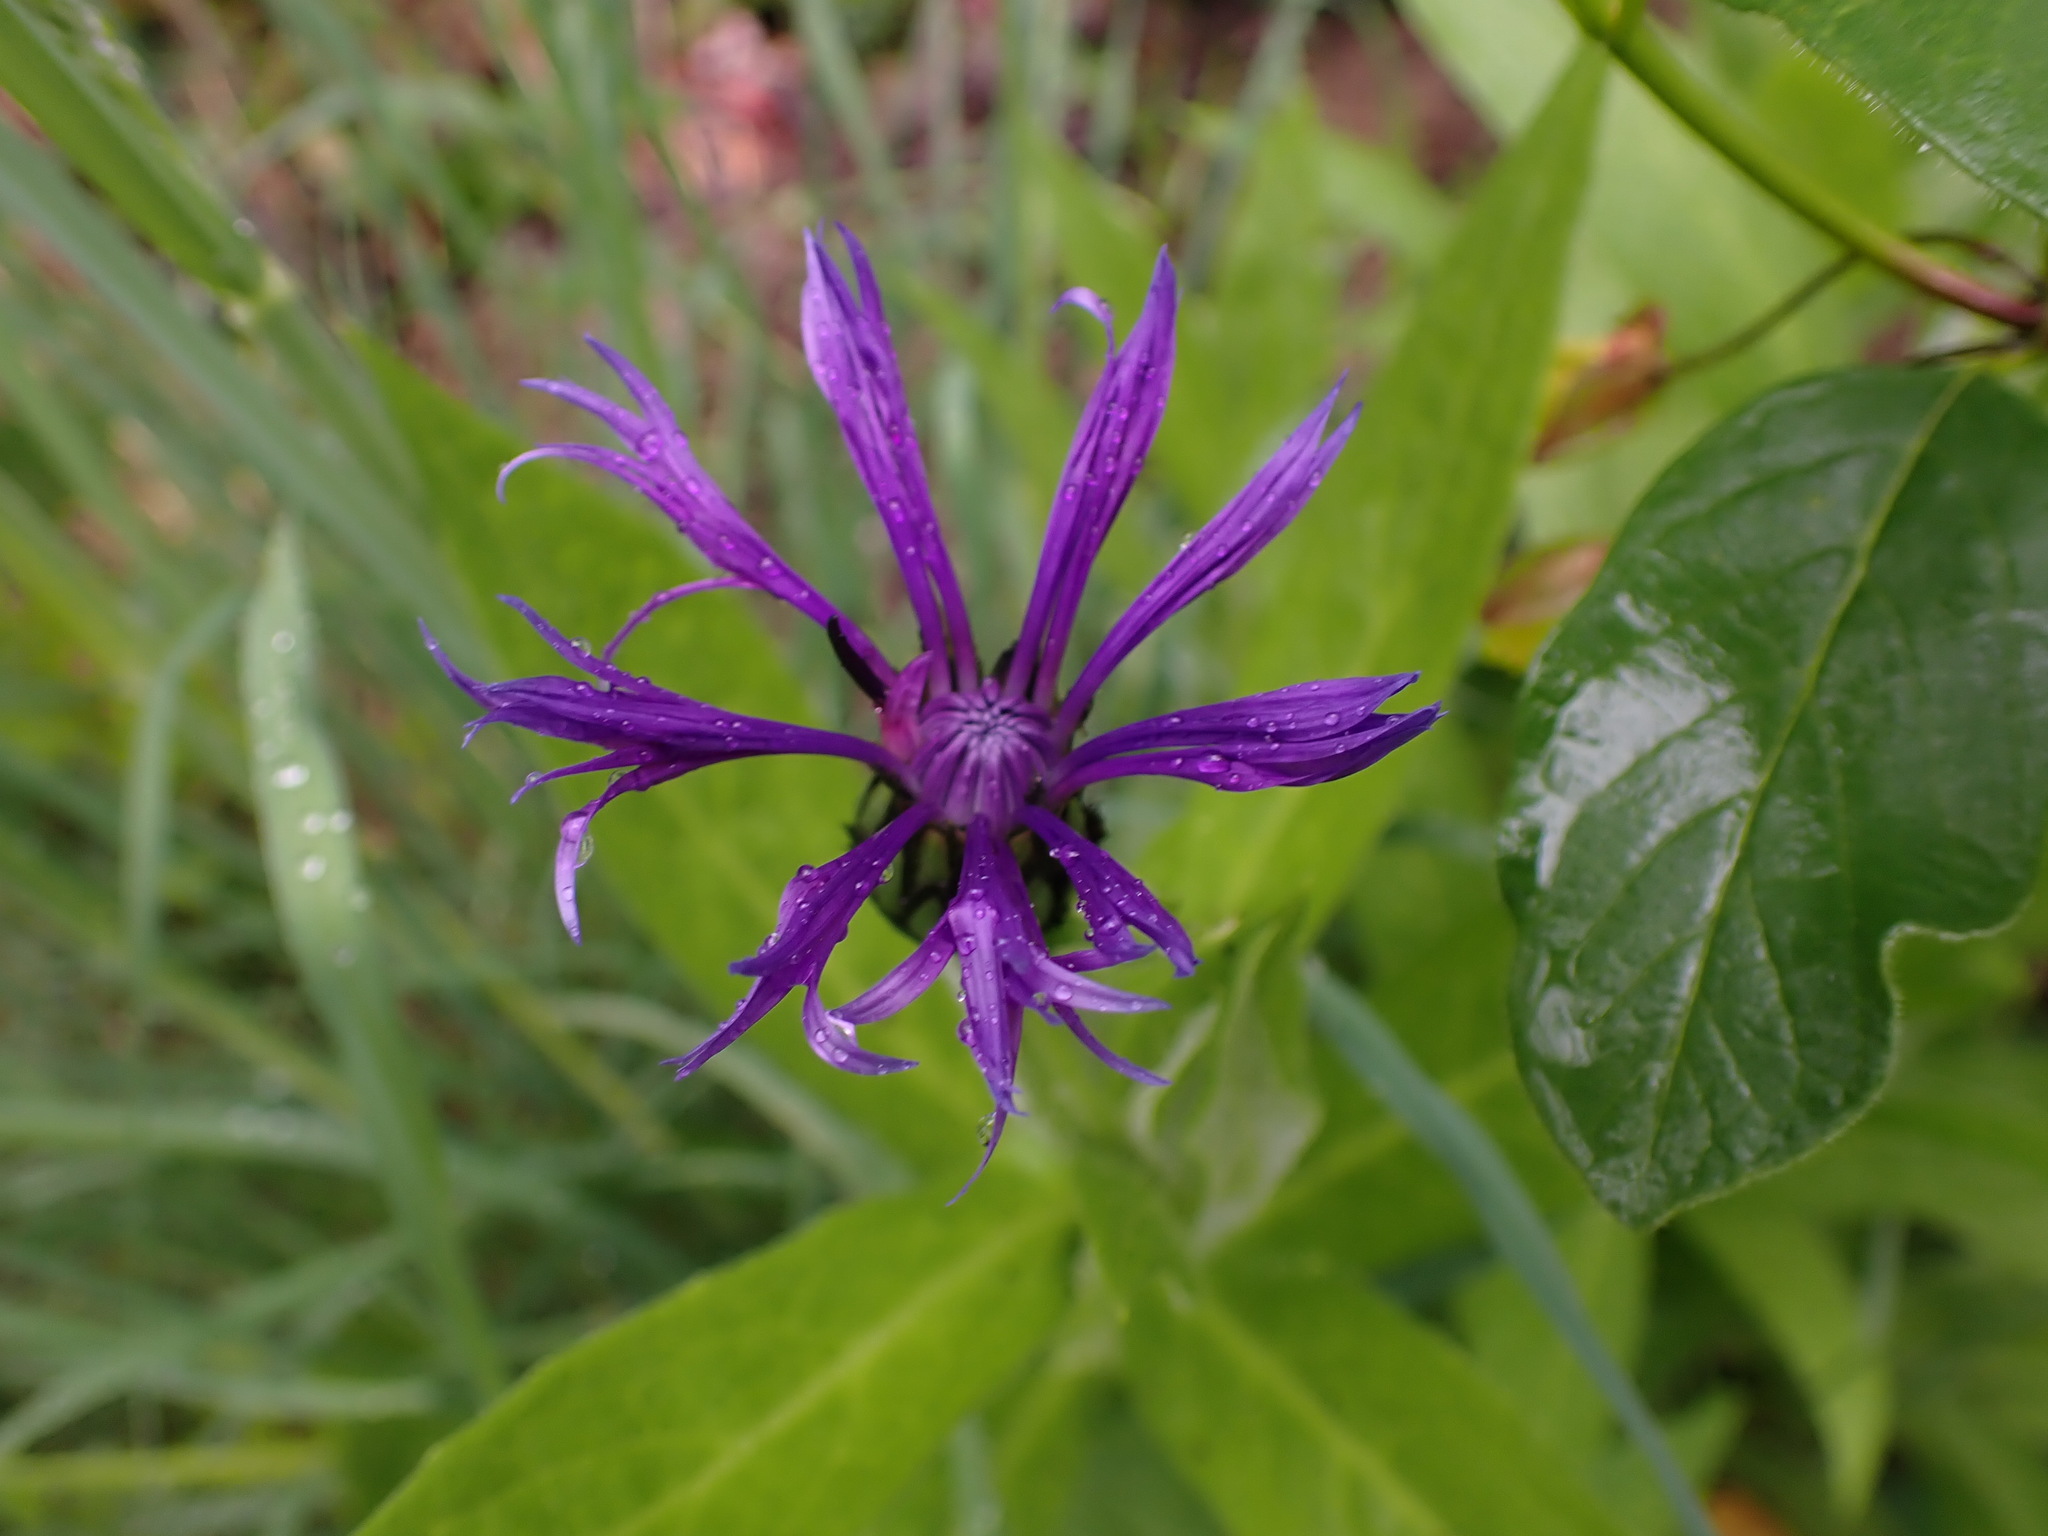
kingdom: Plantae
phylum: Tracheophyta
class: Magnoliopsida
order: Asterales
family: Asteraceae
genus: Centaurea
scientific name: Centaurea montana
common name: Perennial cornflower
